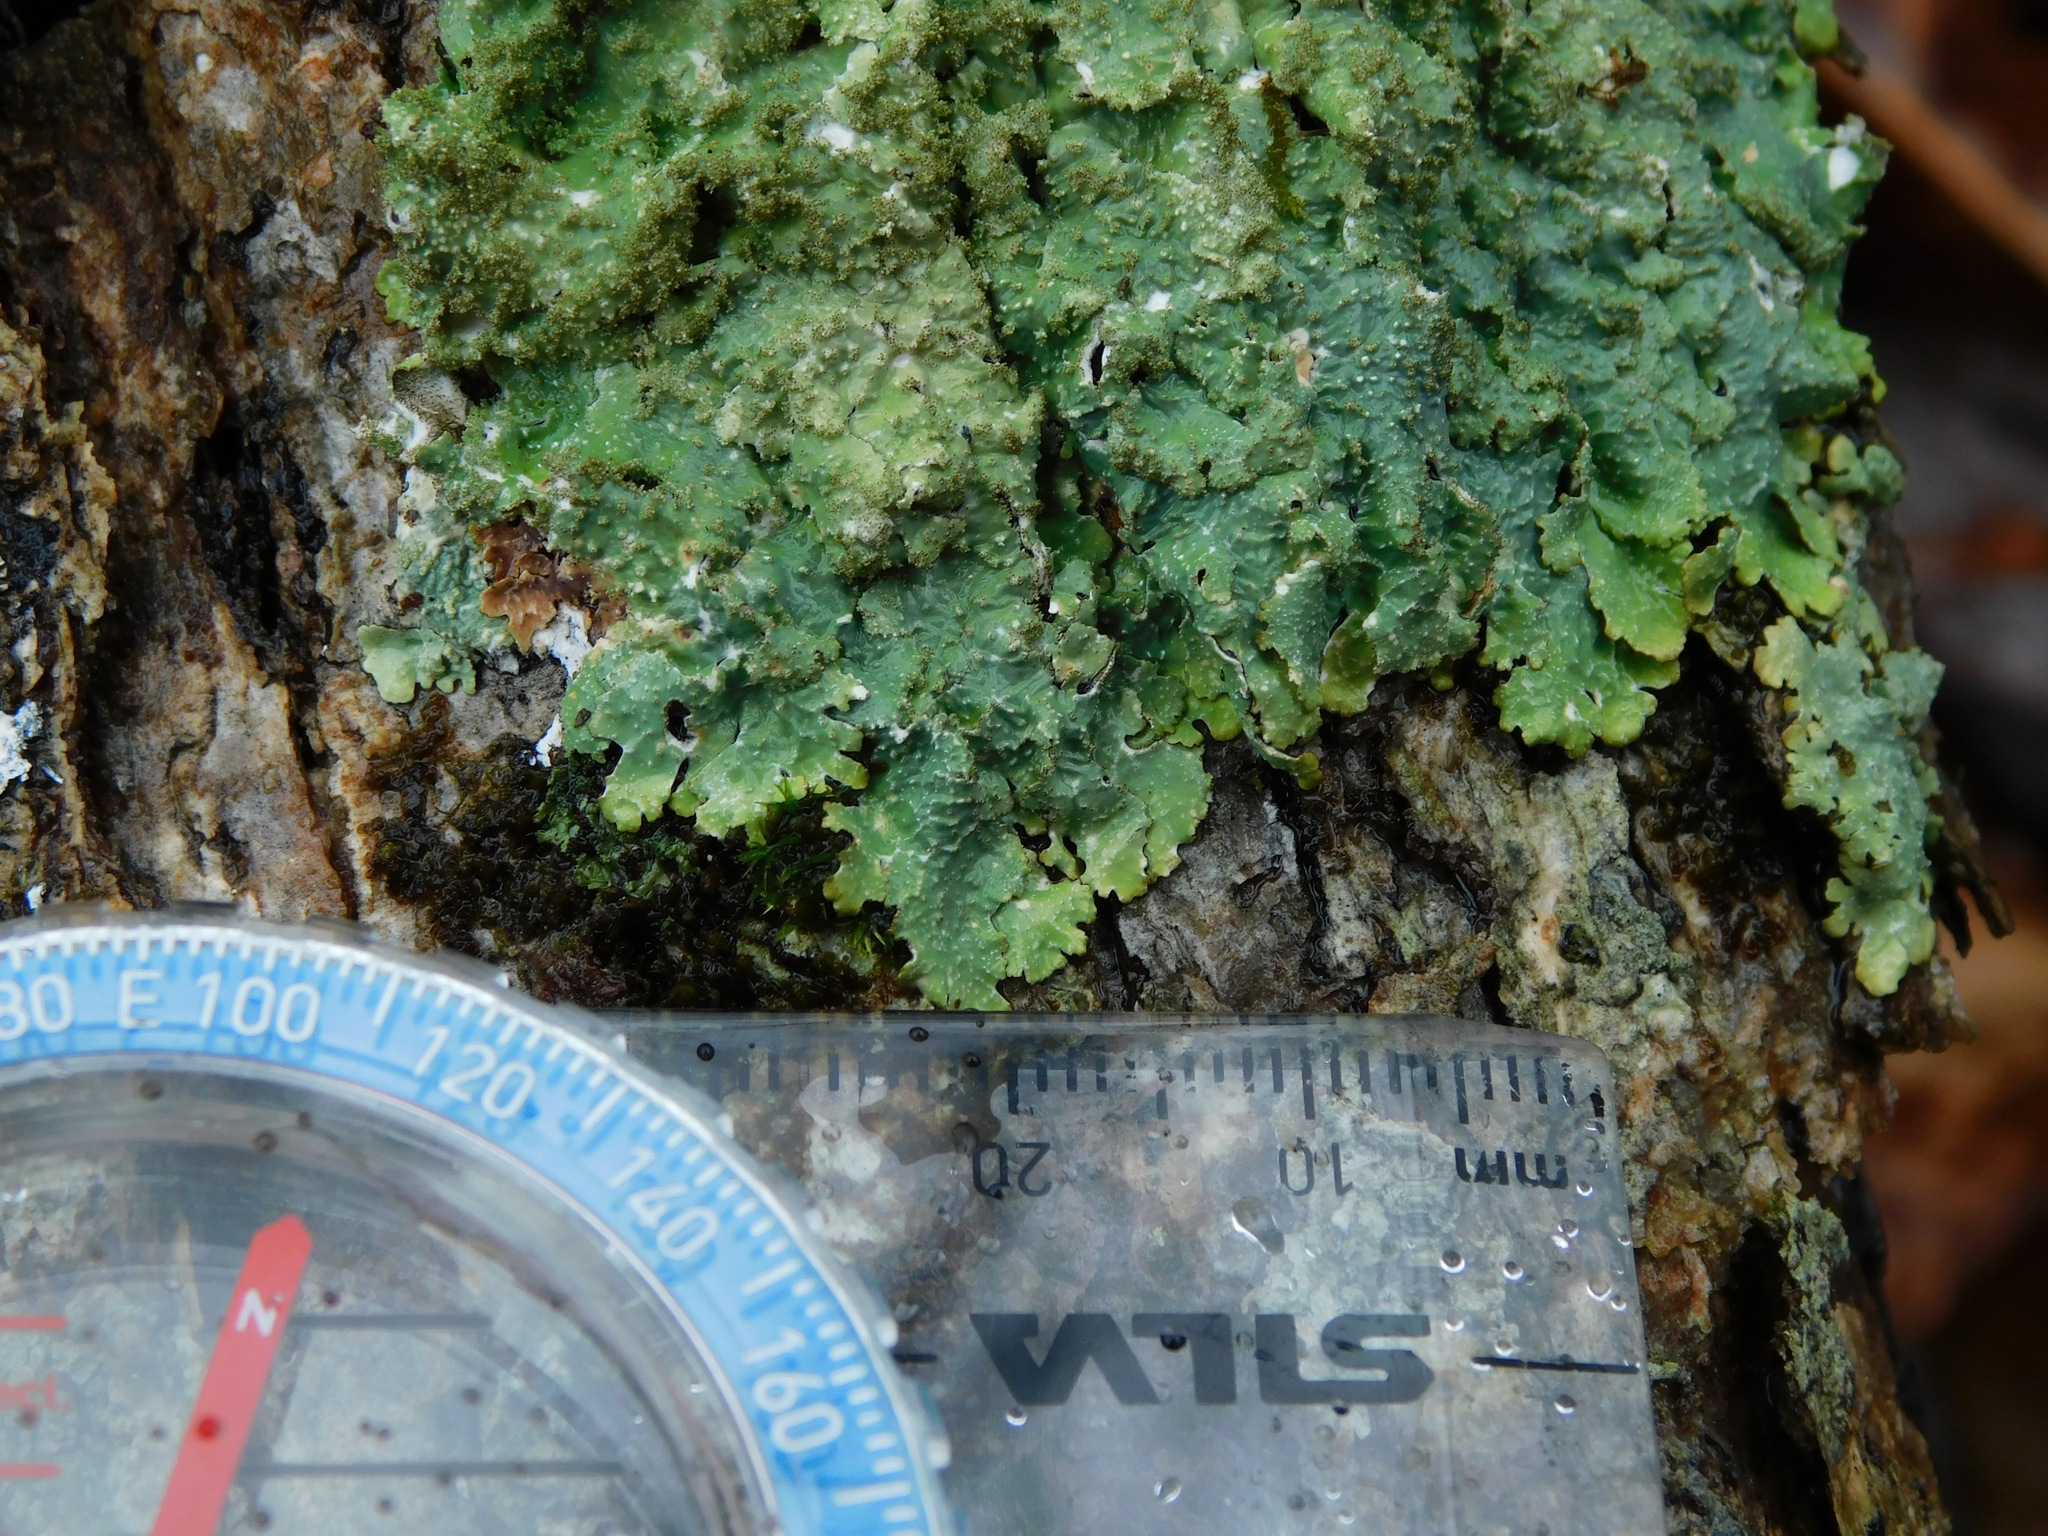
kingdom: Fungi
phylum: Ascomycota
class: Lecanoromycetes
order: Lecanorales
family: Parmeliaceae
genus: Punctelia
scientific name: Punctelia rudecta
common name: Rough speckled shield lichen
